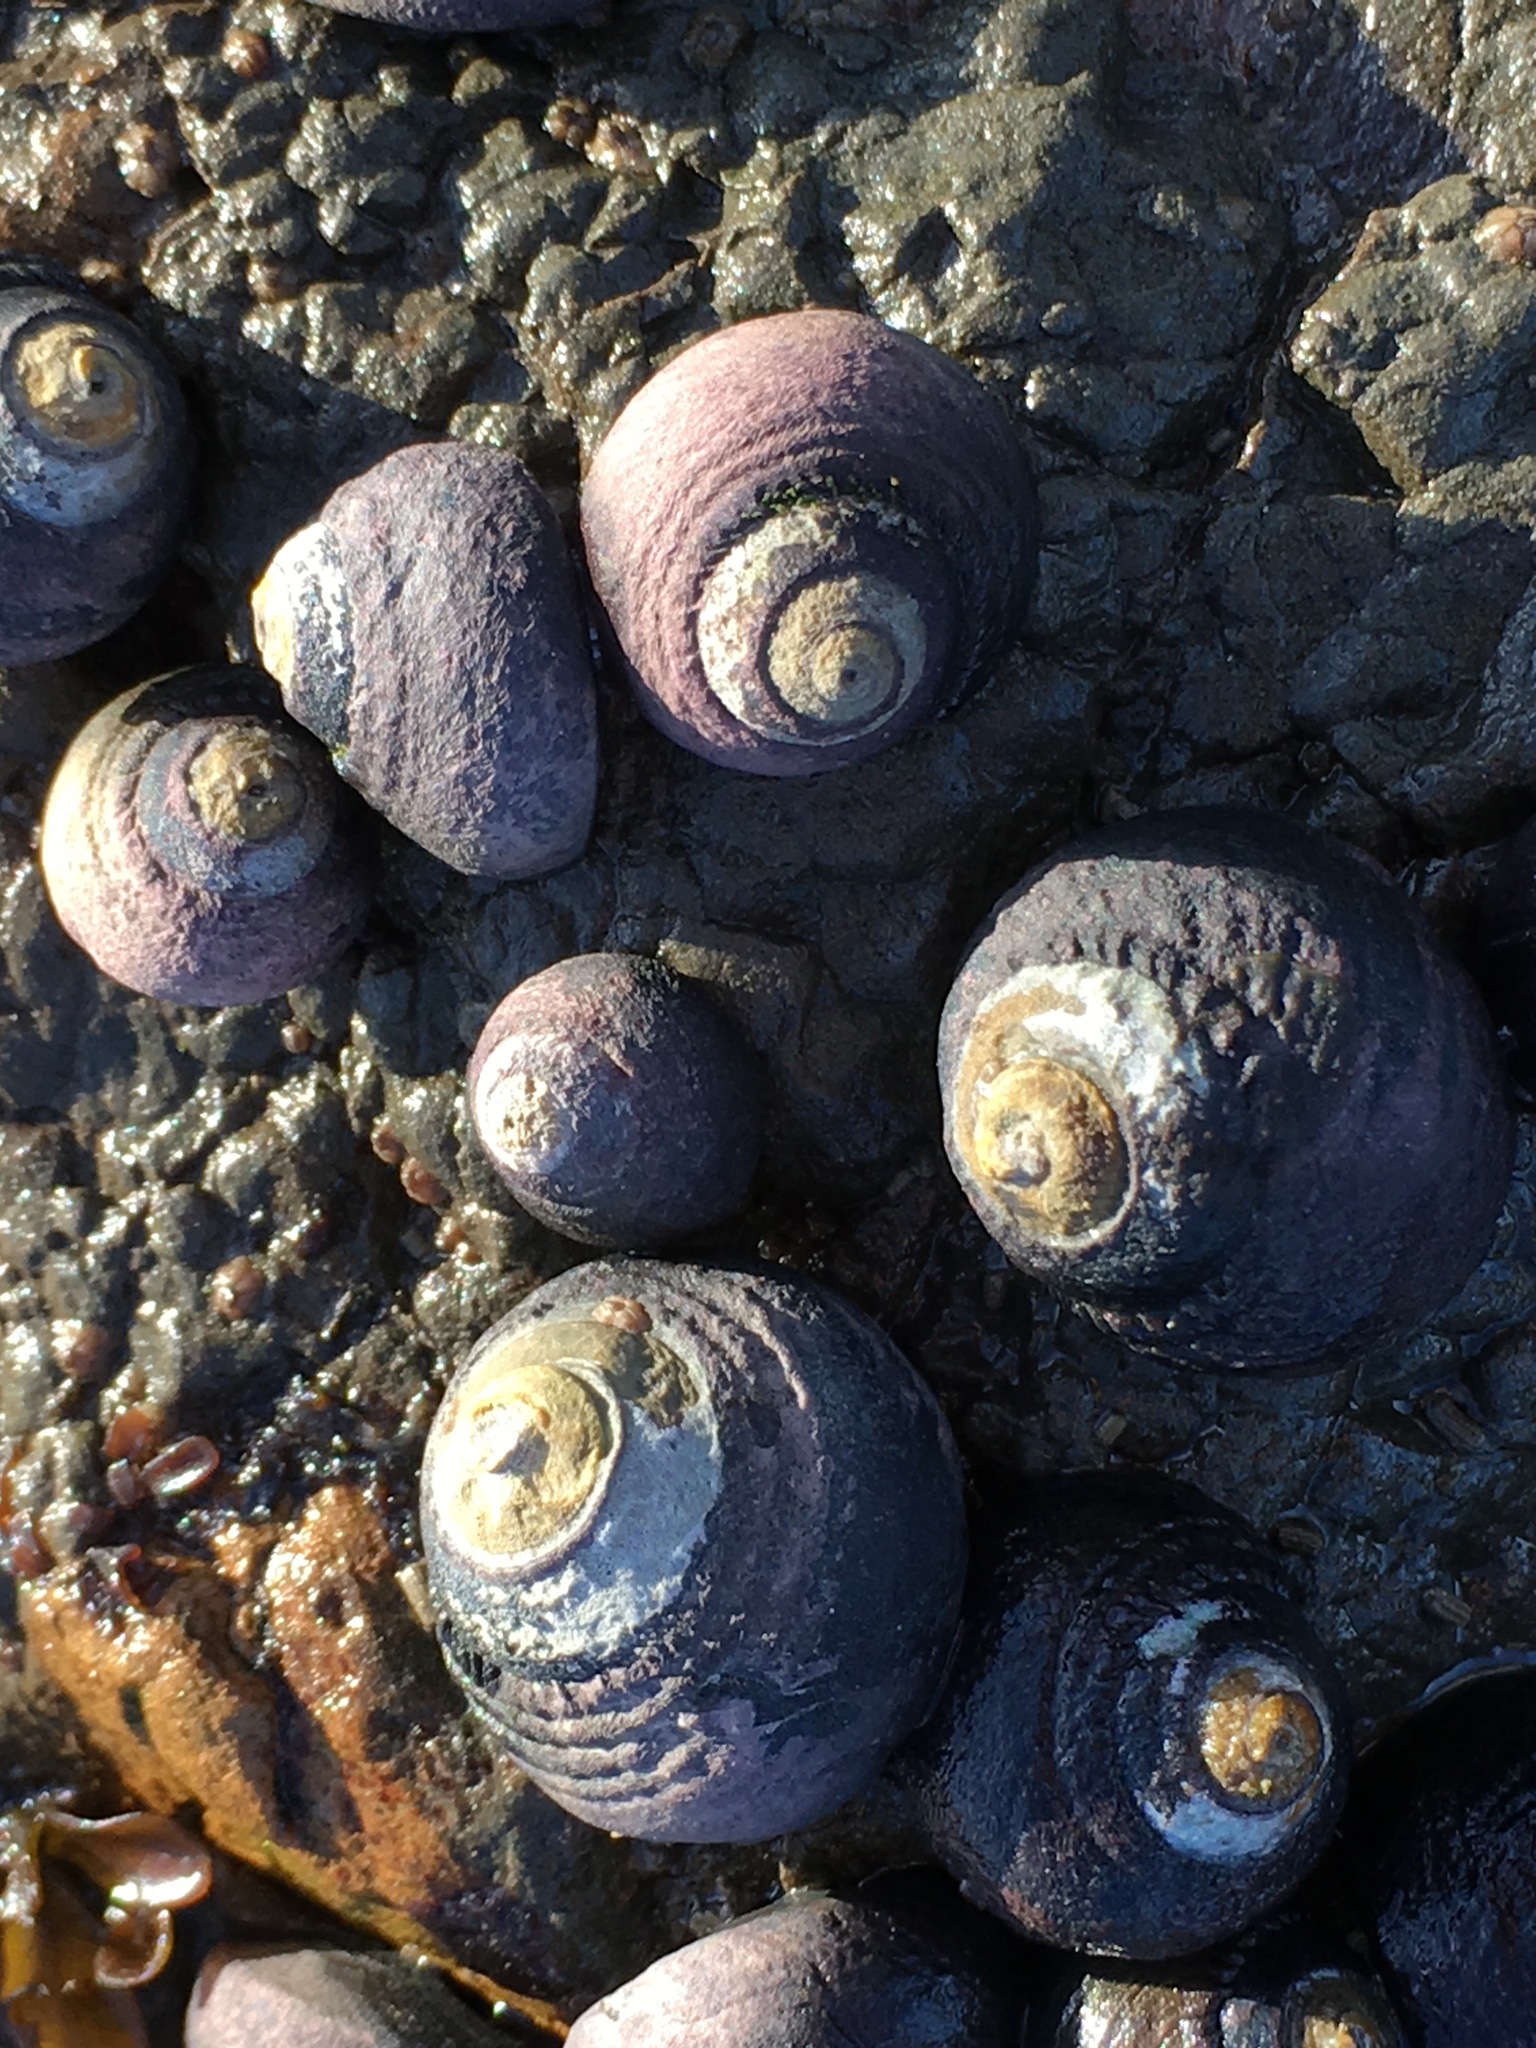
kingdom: Animalia
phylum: Mollusca
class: Gastropoda
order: Trochida
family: Tegulidae
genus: Tegula
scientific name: Tegula funebralis
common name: Black tegula
